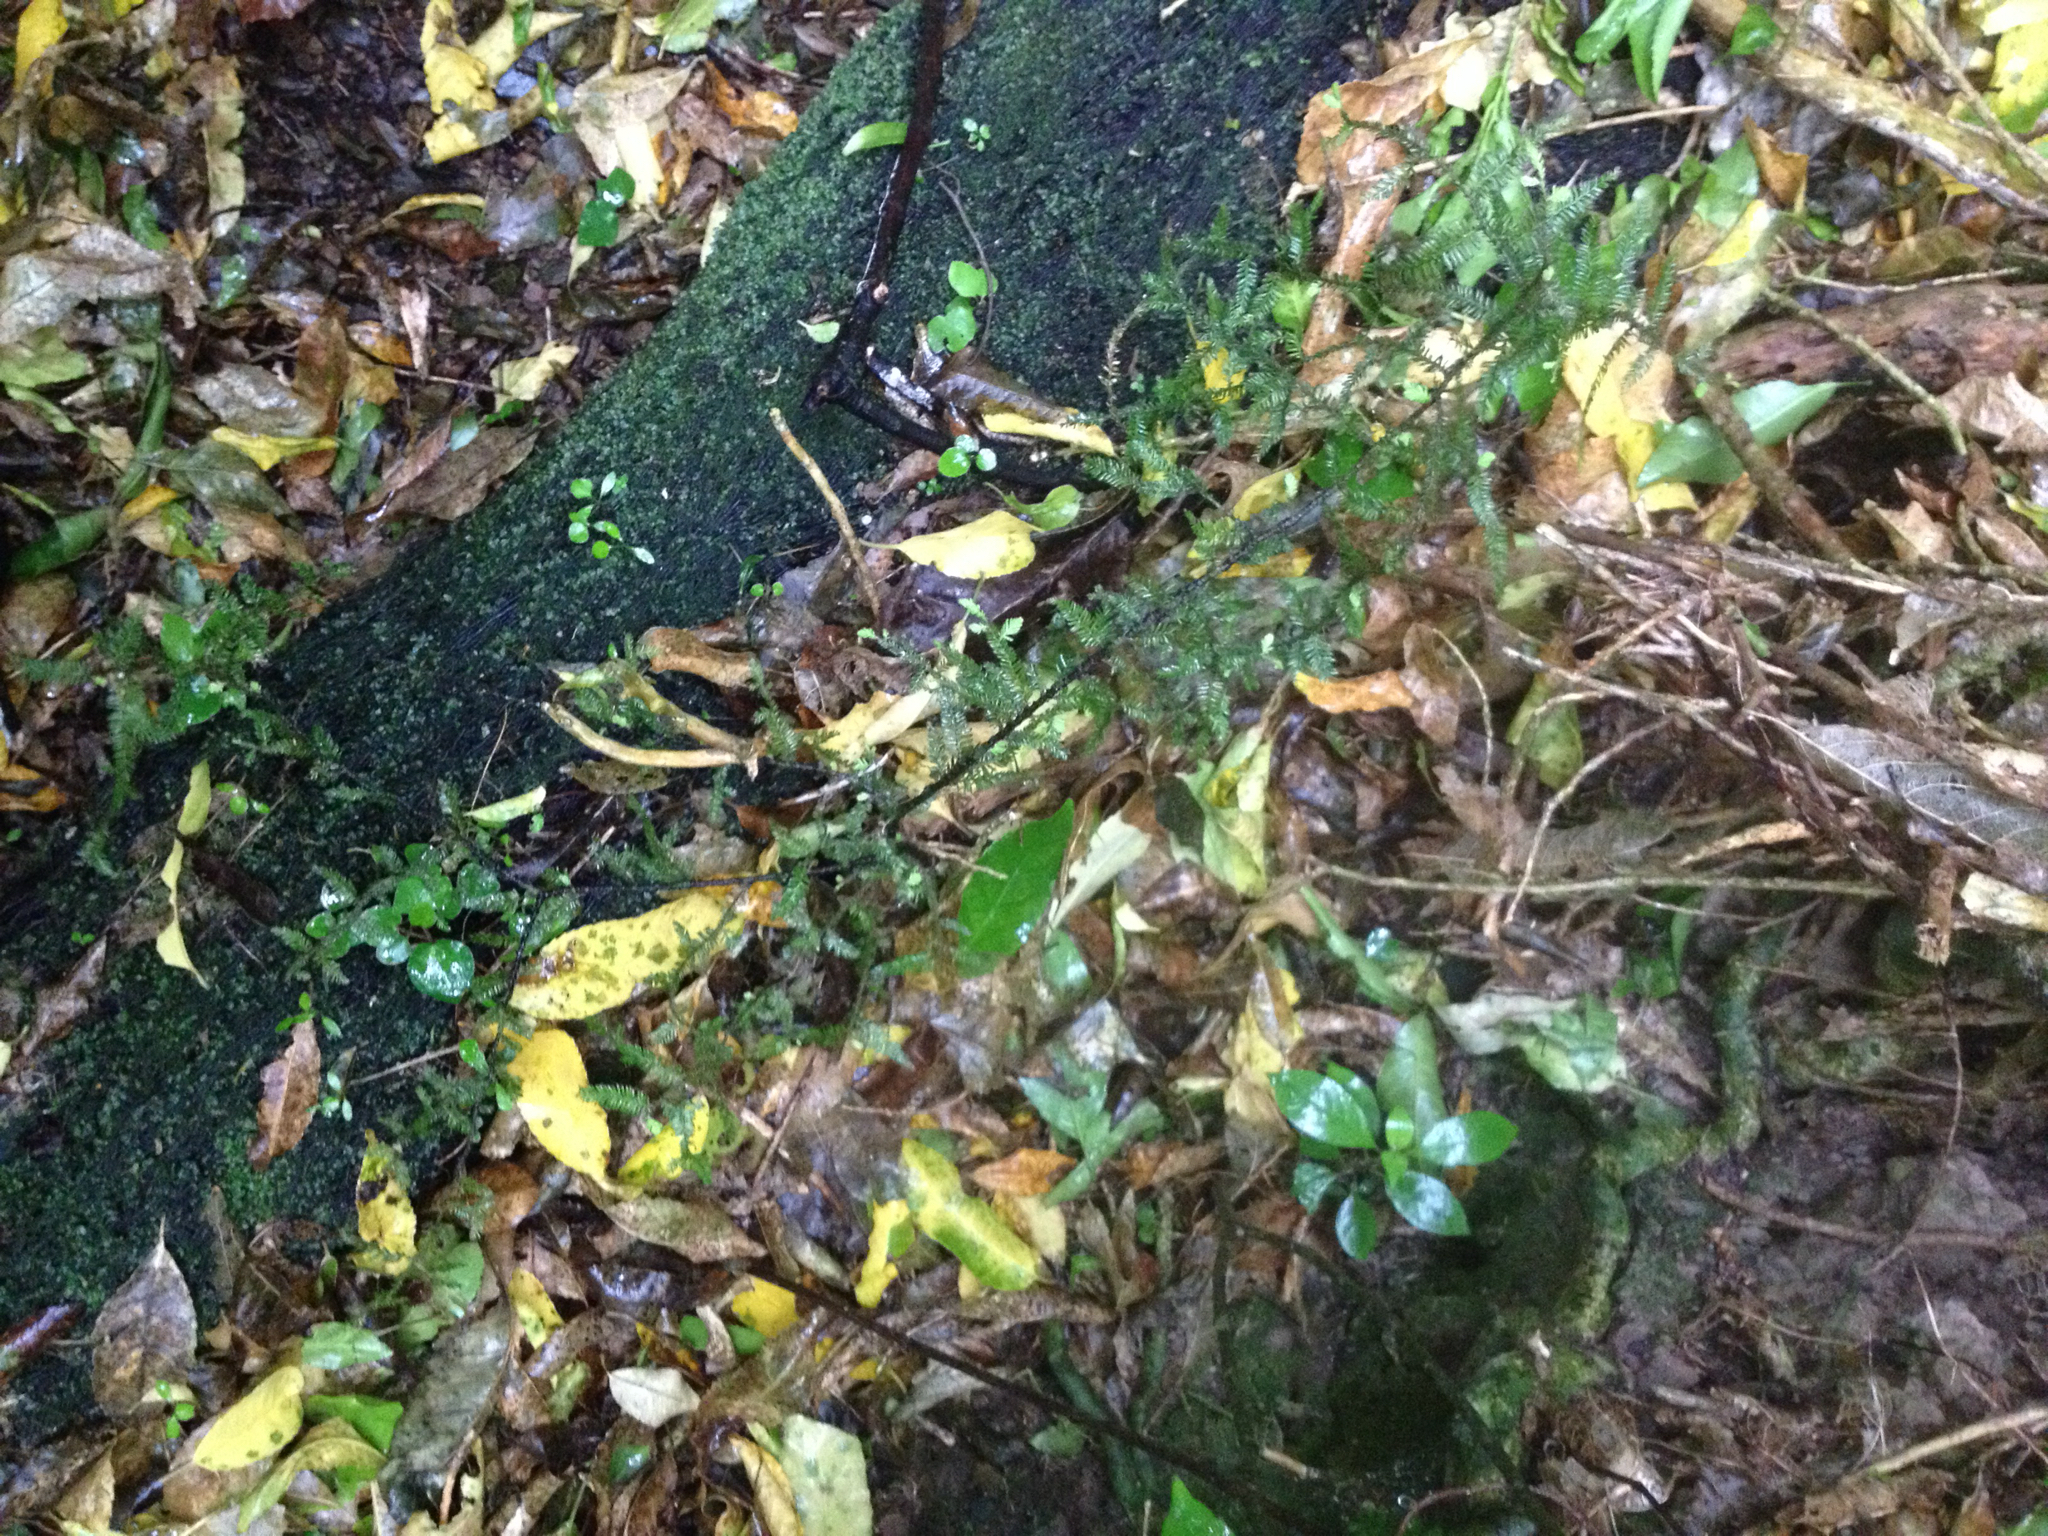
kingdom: Plantae
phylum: Tracheophyta
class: Pinopsida
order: Pinales
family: Podocarpaceae
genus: Dacrycarpus
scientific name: Dacrycarpus dacrydioides
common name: White pine
